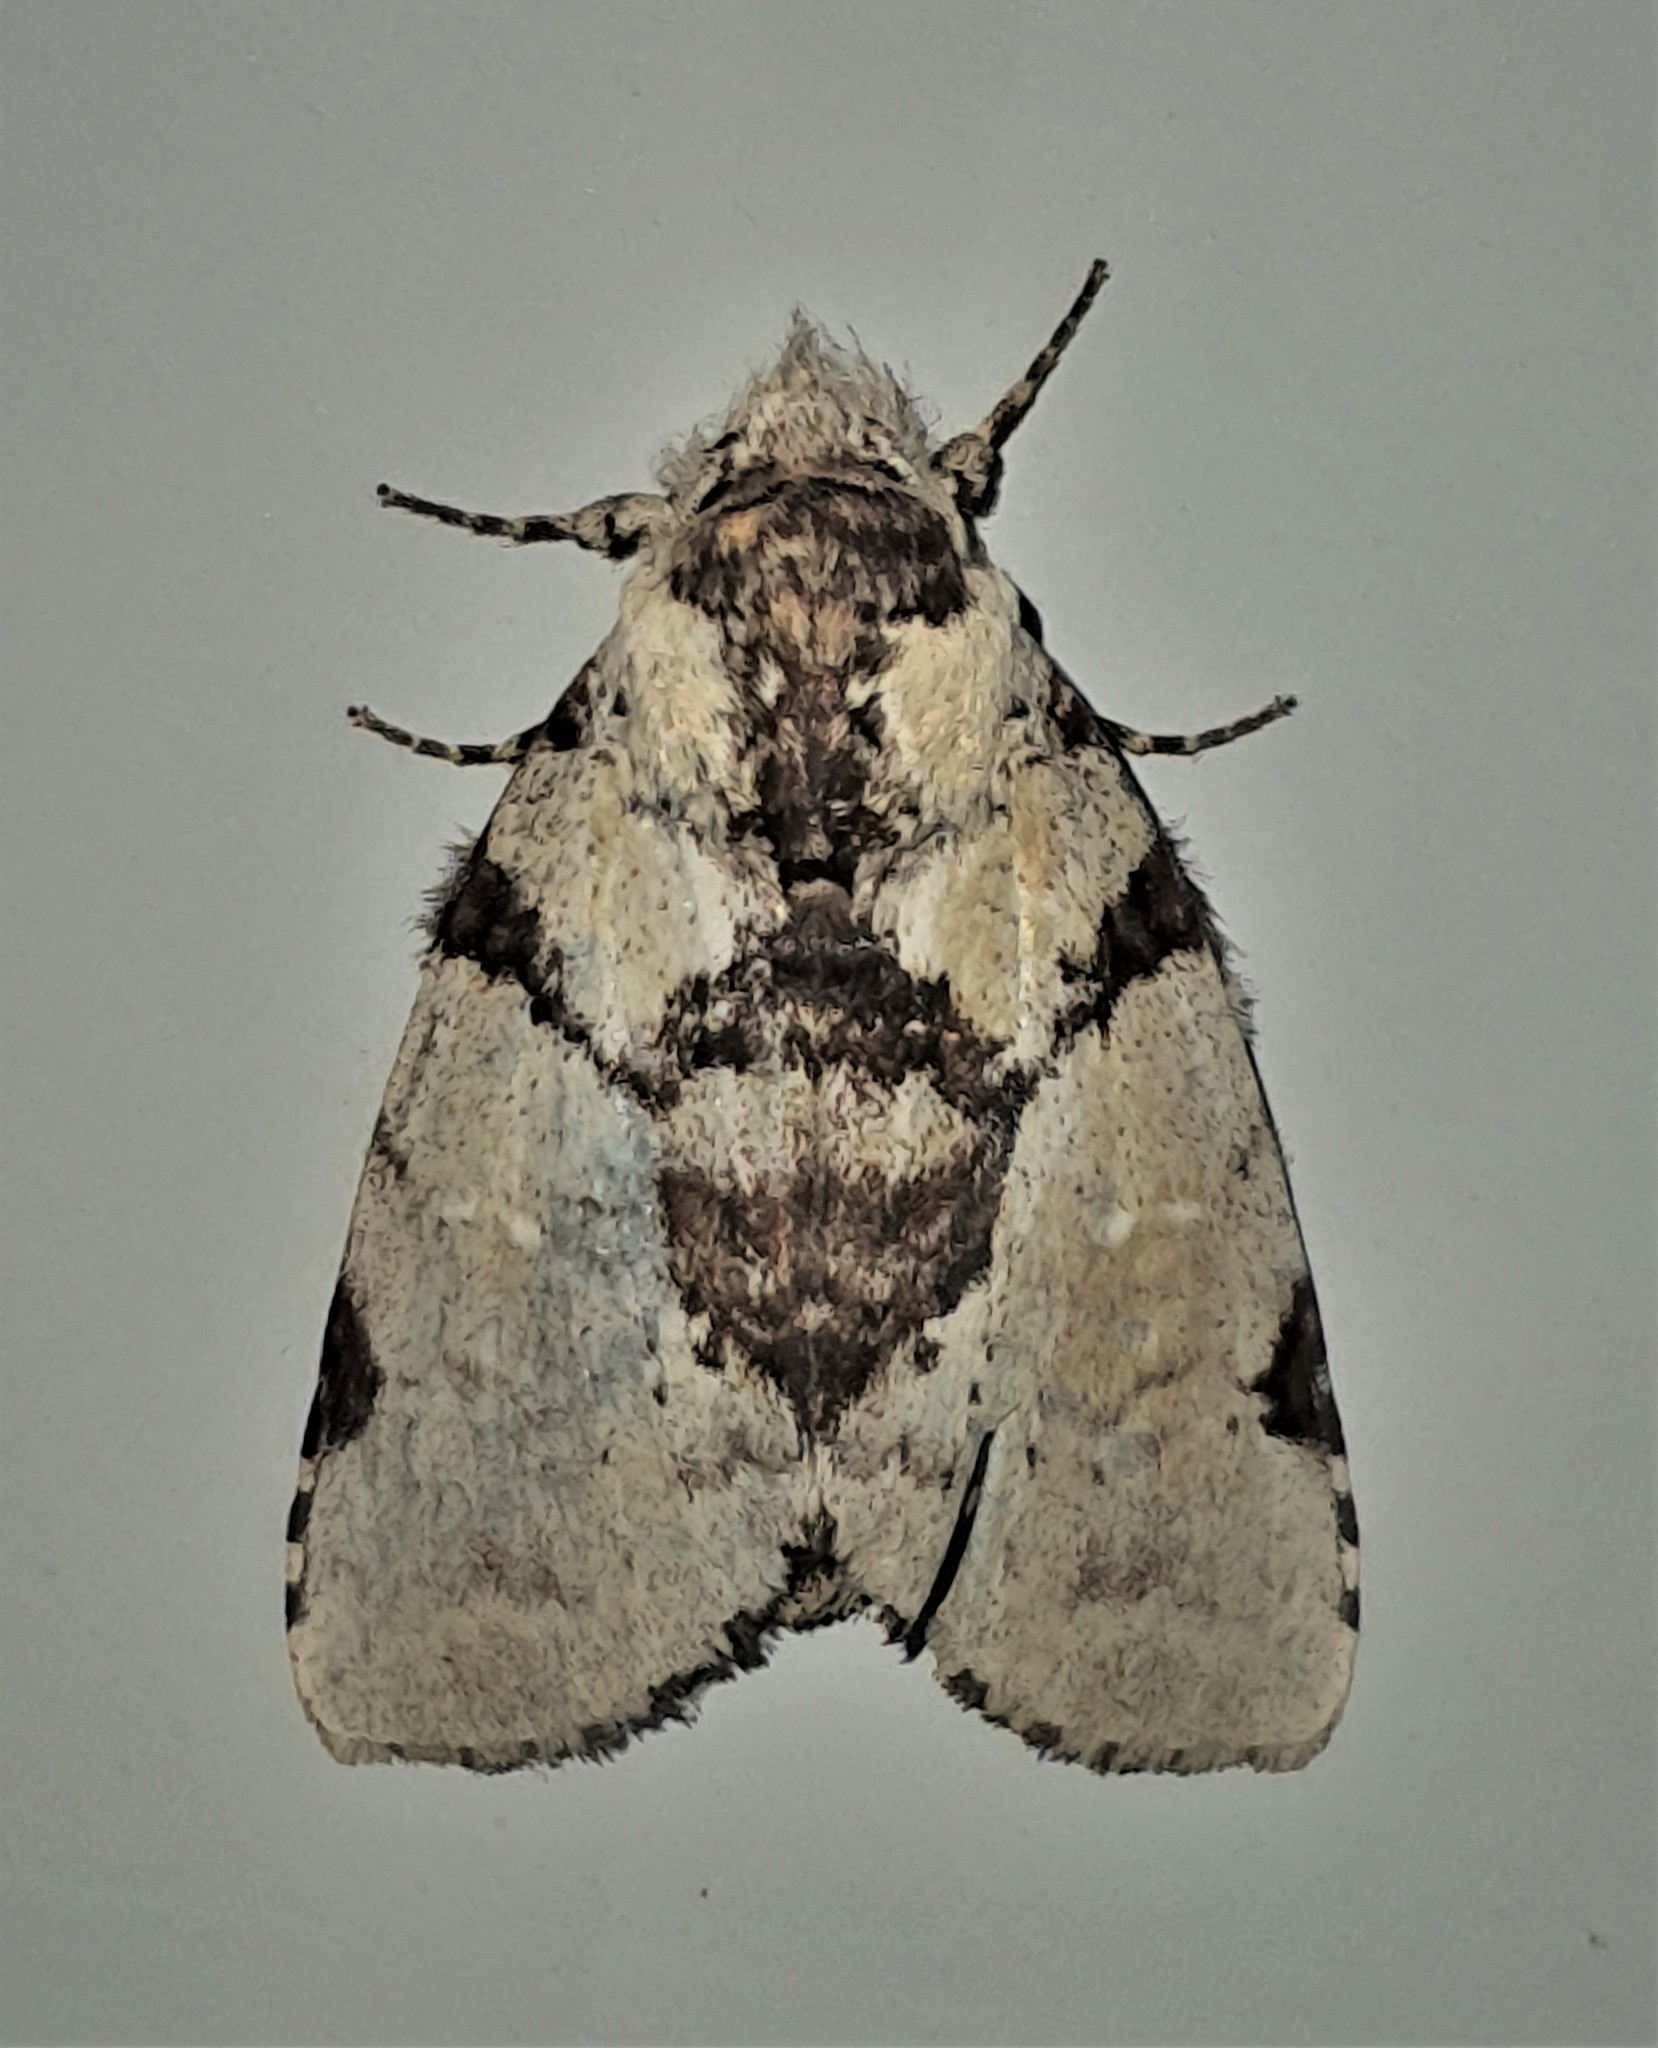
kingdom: Animalia
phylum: Arthropoda
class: Insecta
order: Lepidoptera
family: Notodontidae
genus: Malocampa
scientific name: Malocampa piratica
